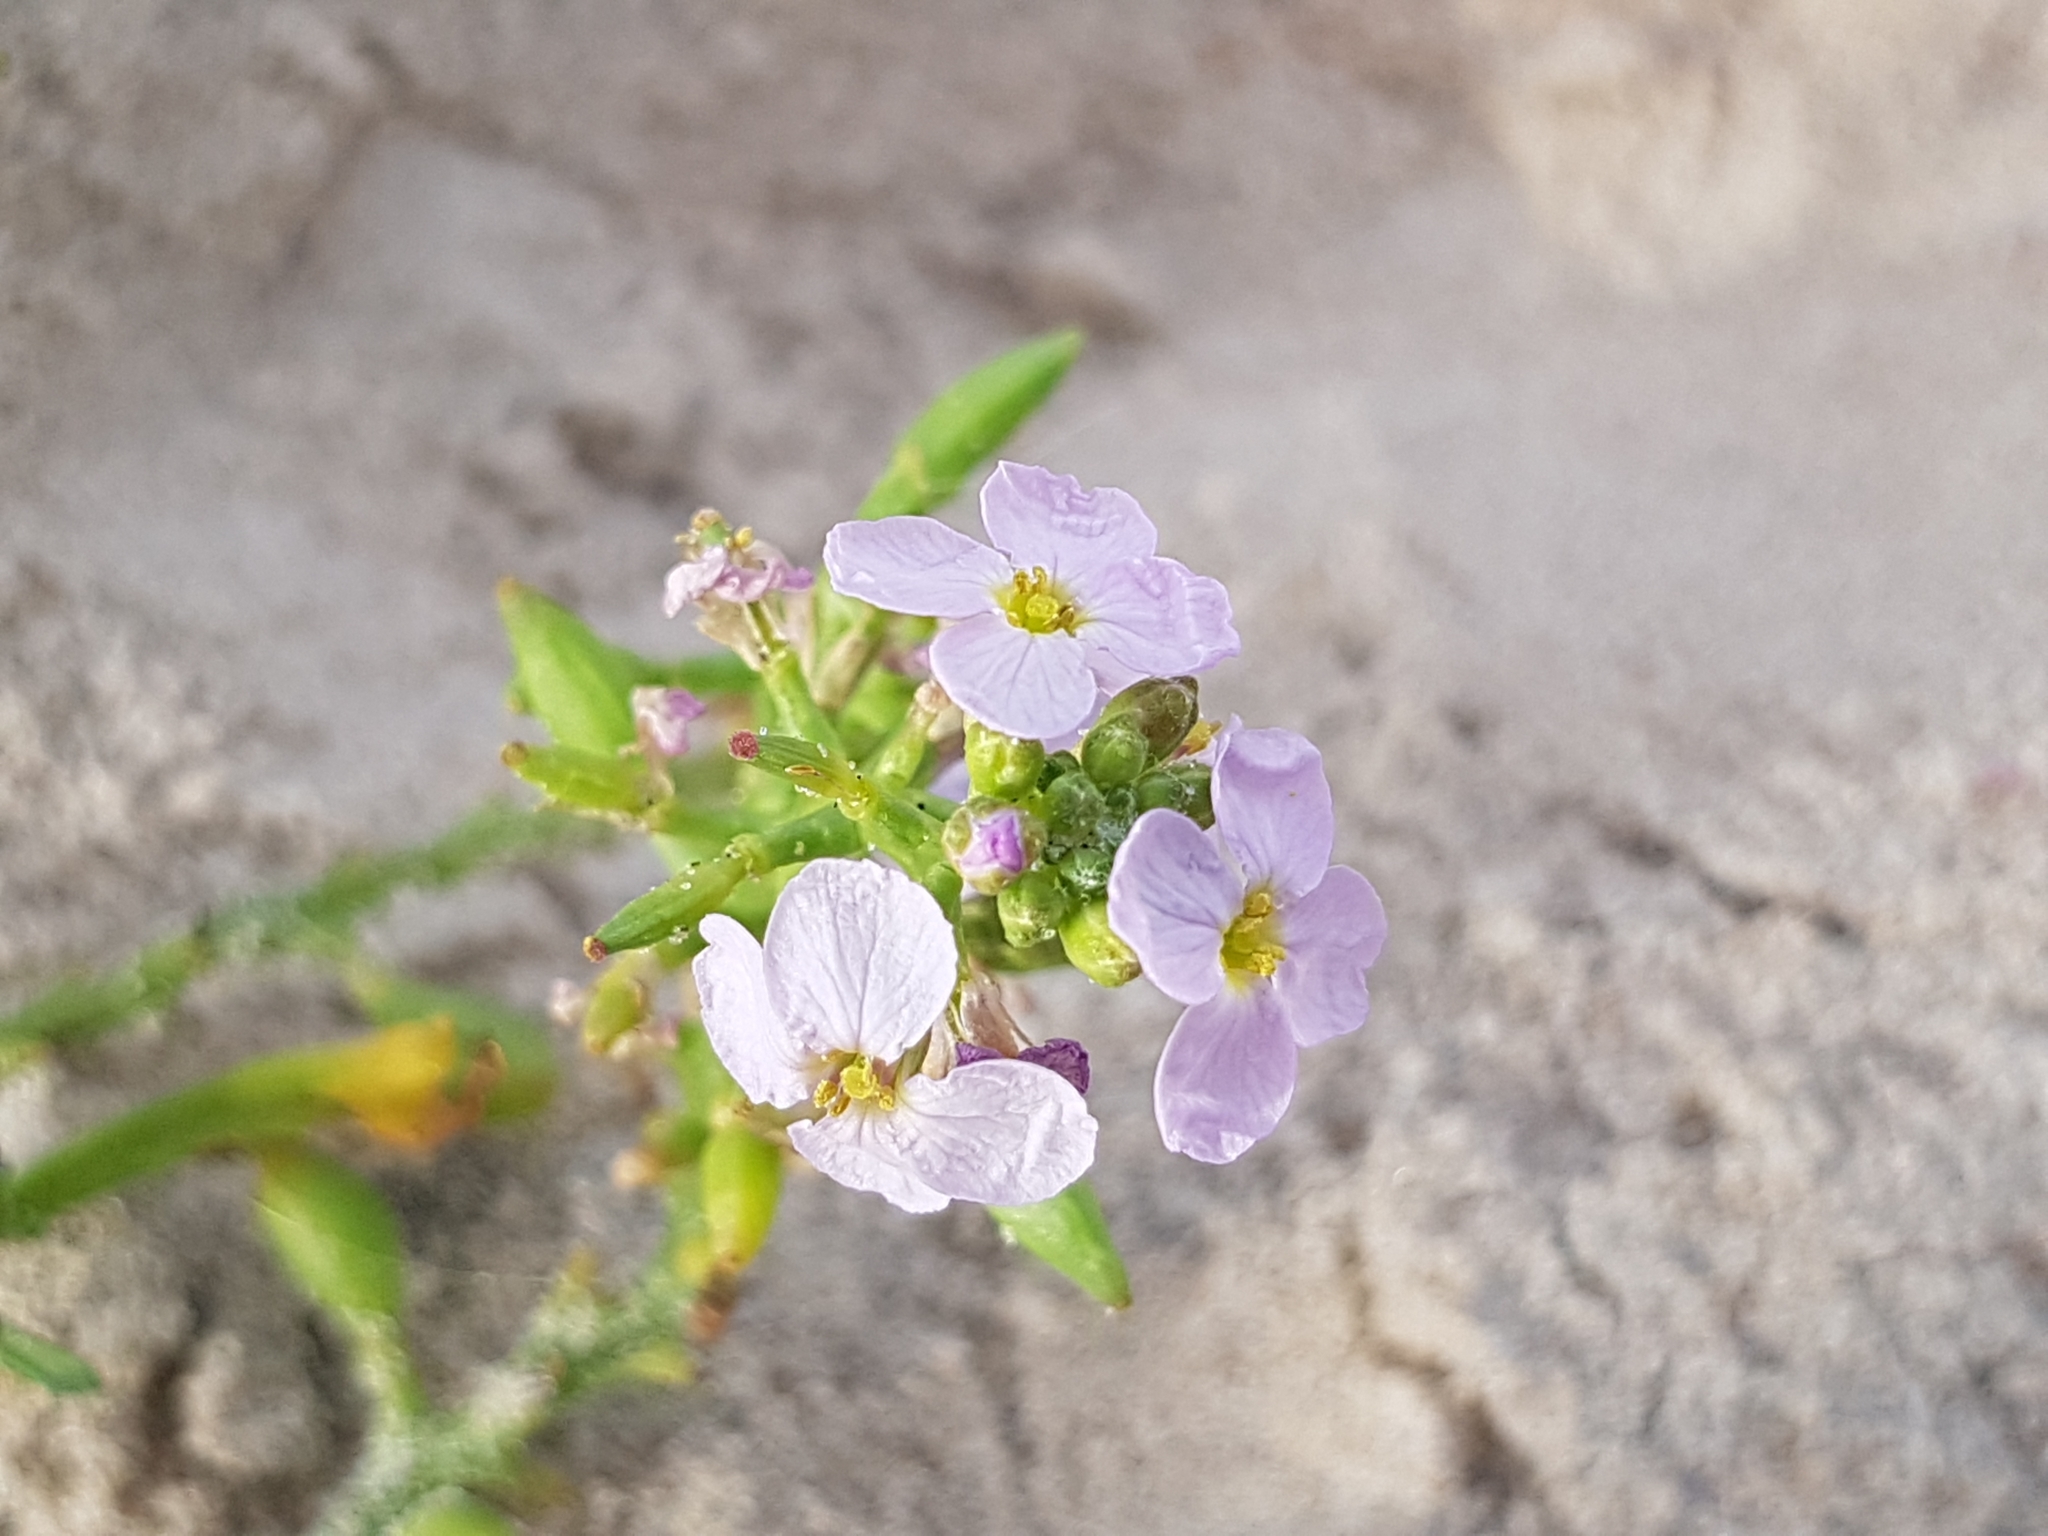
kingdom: Plantae
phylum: Tracheophyta
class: Magnoliopsida
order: Brassicales
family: Brassicaceae
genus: Cakile
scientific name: Cakile maritima
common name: Sea rocket
